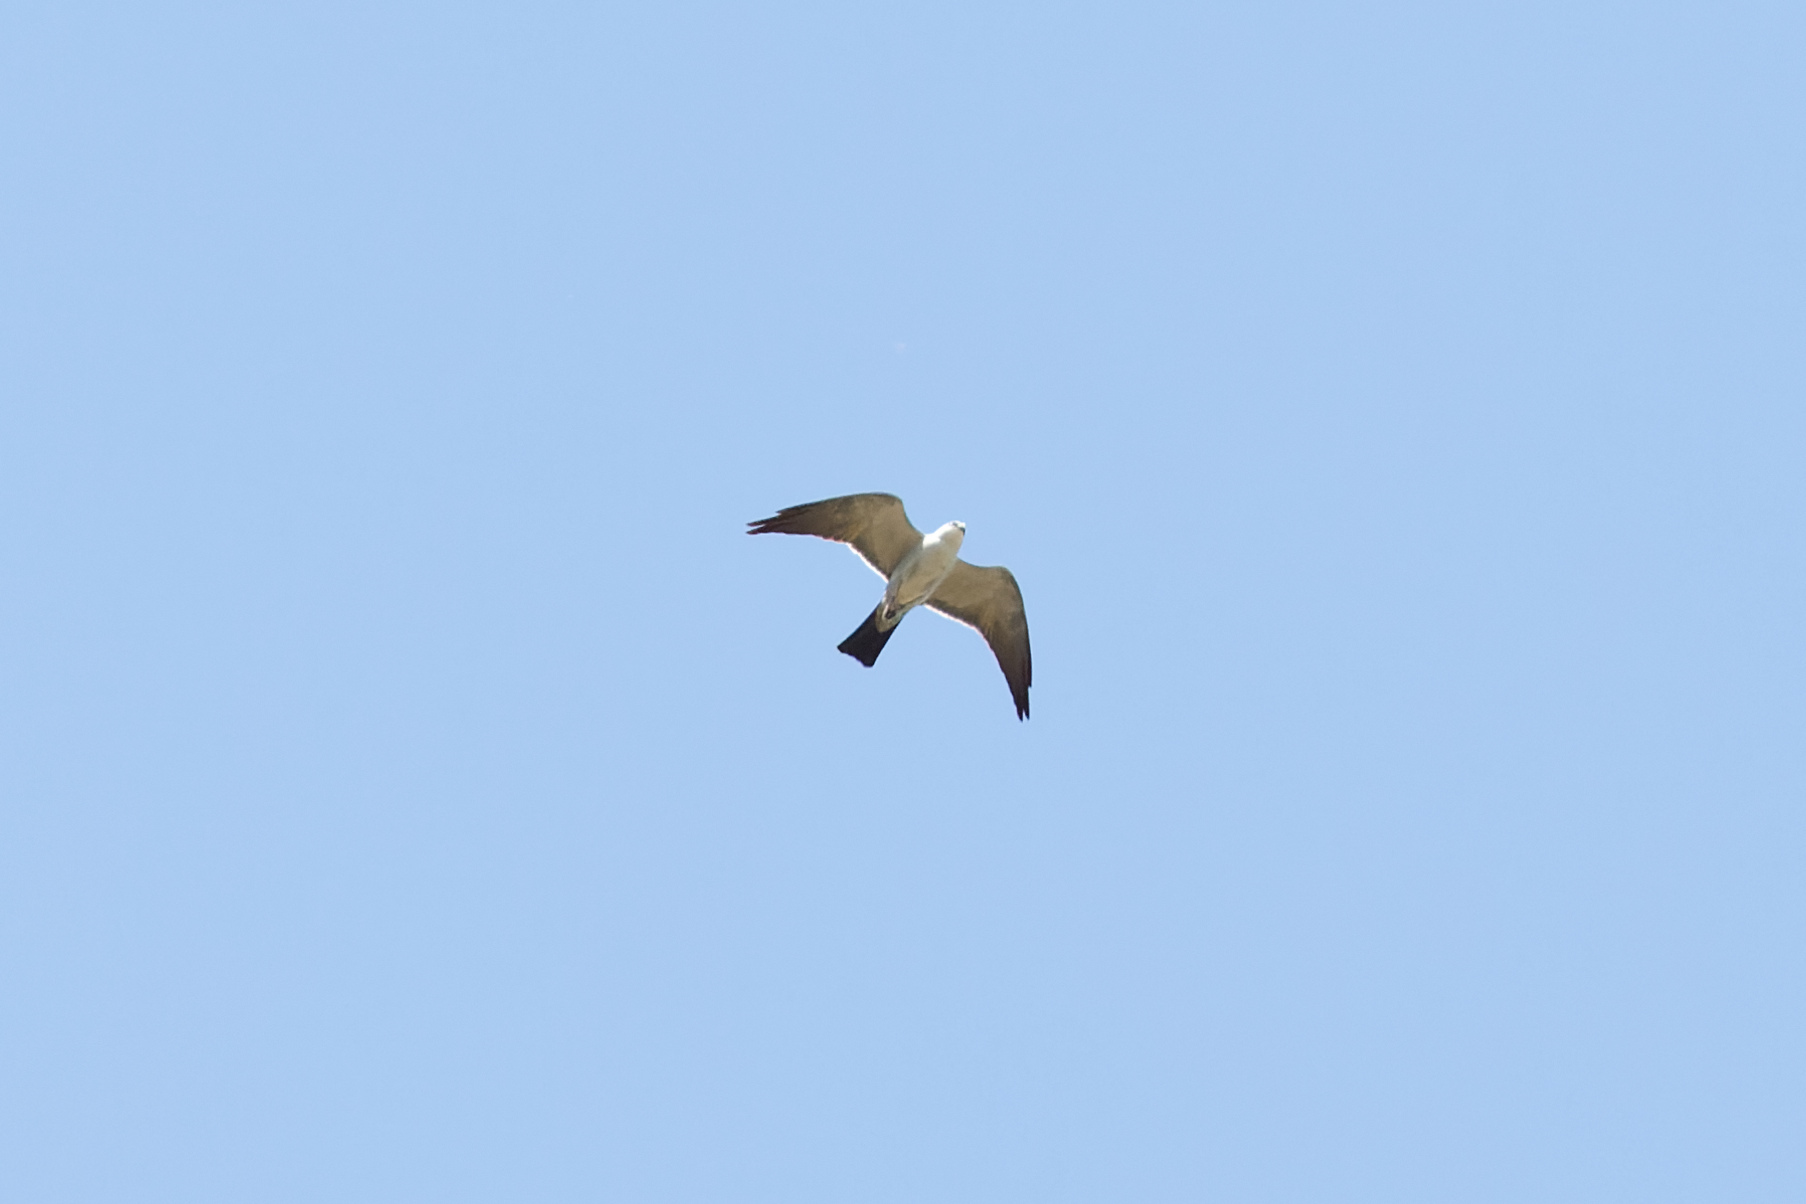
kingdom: Animalia
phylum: Chordata
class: Aves
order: Accipitriformes
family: Accipitridae
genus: Ictinia
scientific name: Ictinia mississippiensis
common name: Mississippi kite
